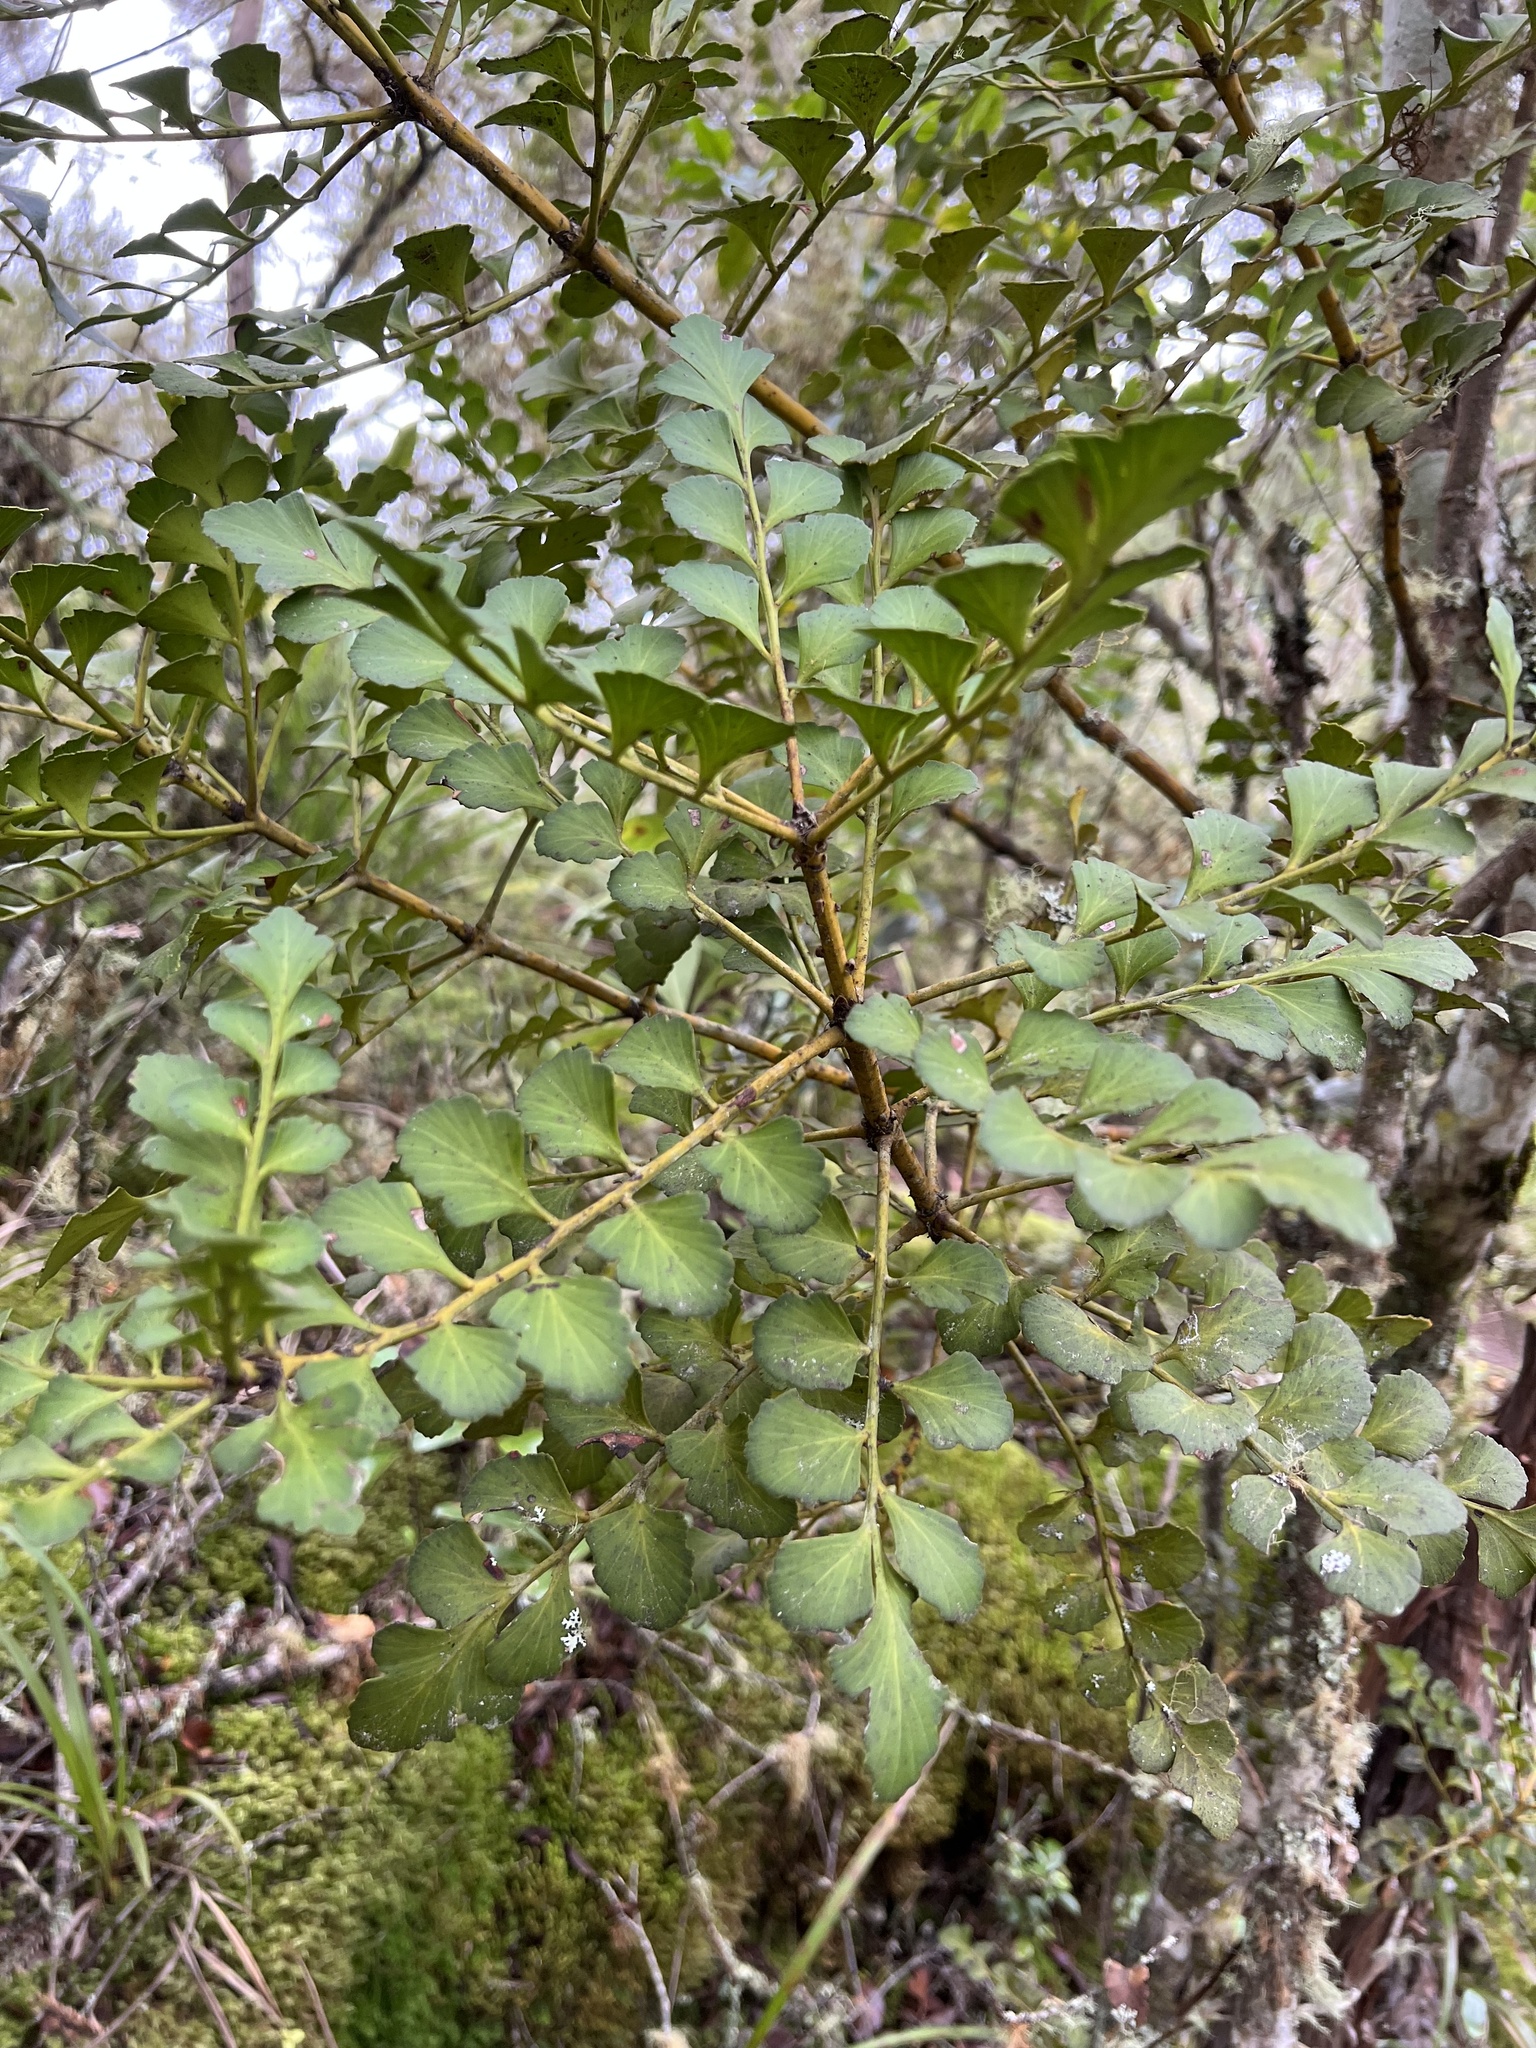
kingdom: Plantae
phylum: Tracheophyta
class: Pinopsida
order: Pinales
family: Phyllocladaceae
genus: Phyllocladus
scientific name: Phyllocladus toatoa
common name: Celery-top pine
